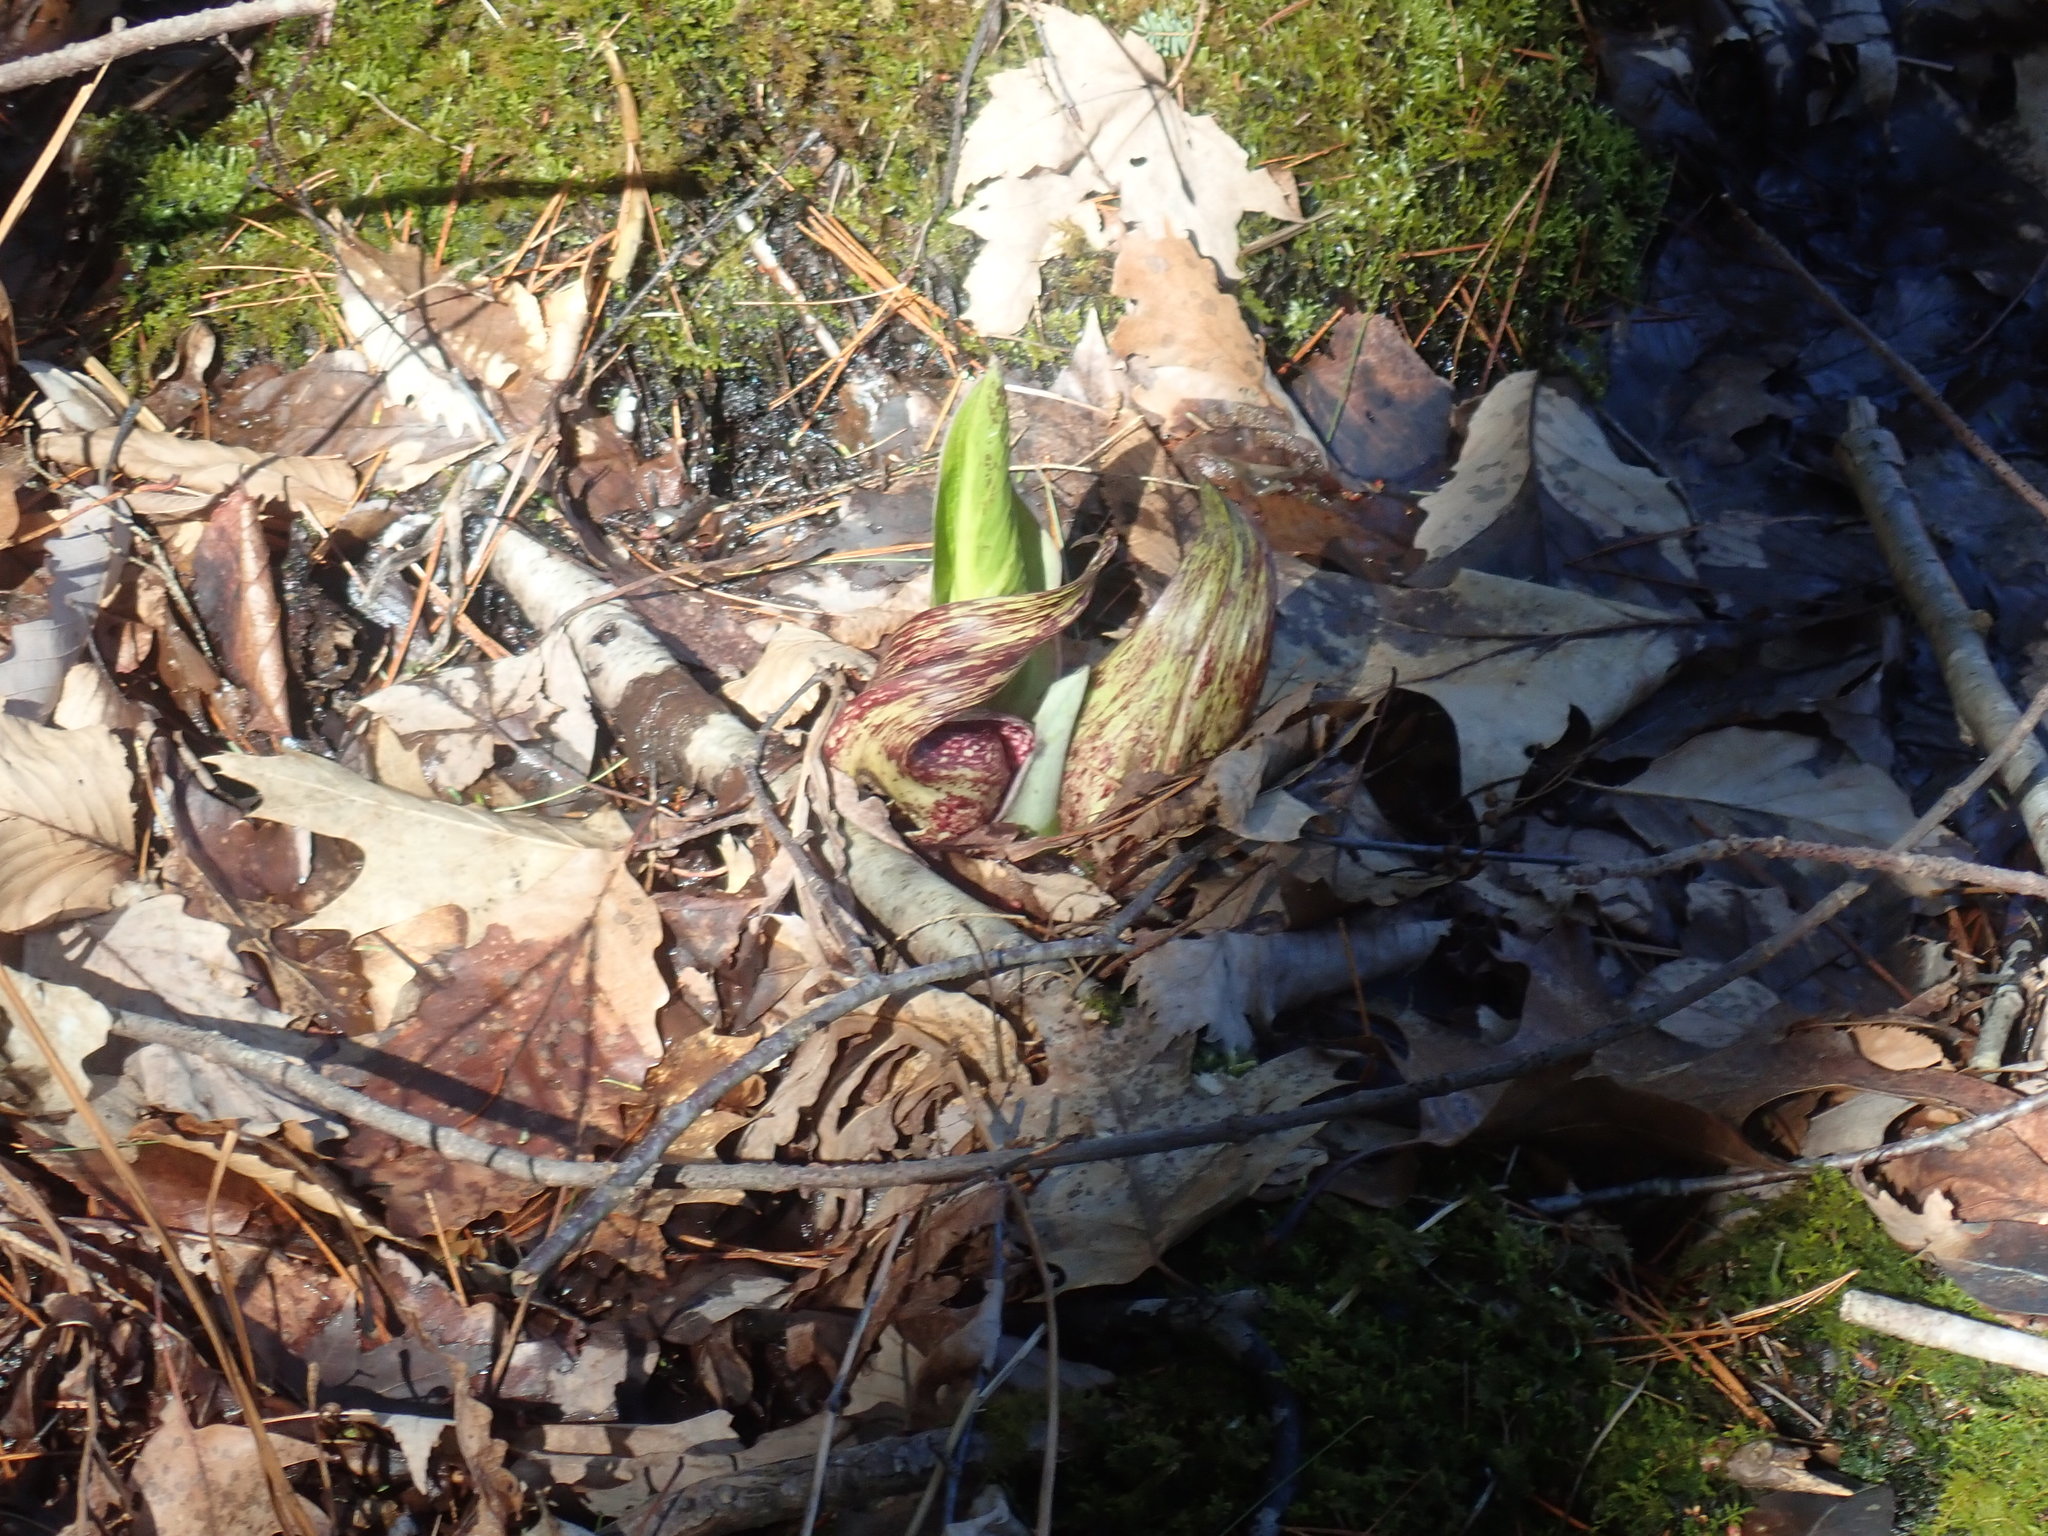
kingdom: Plantae
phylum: Tracheophyta
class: Liliopsida
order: Alismatales
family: Araceae
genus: Symplocarpus
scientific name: Symplocarpus foetidus
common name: Eastern skunk cabbage
